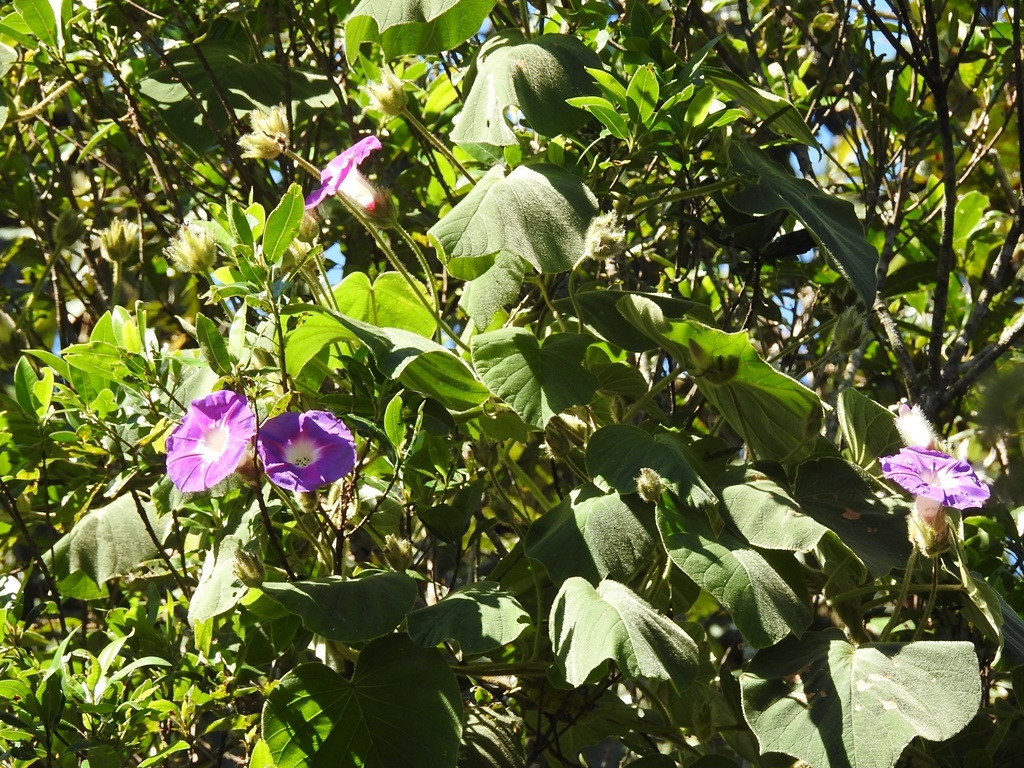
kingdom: Plantae
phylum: Tracheophyta
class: Magnoliopsida
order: Solanales
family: Convolvulaceae
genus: Ipomoea
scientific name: Ipomoea villifera
